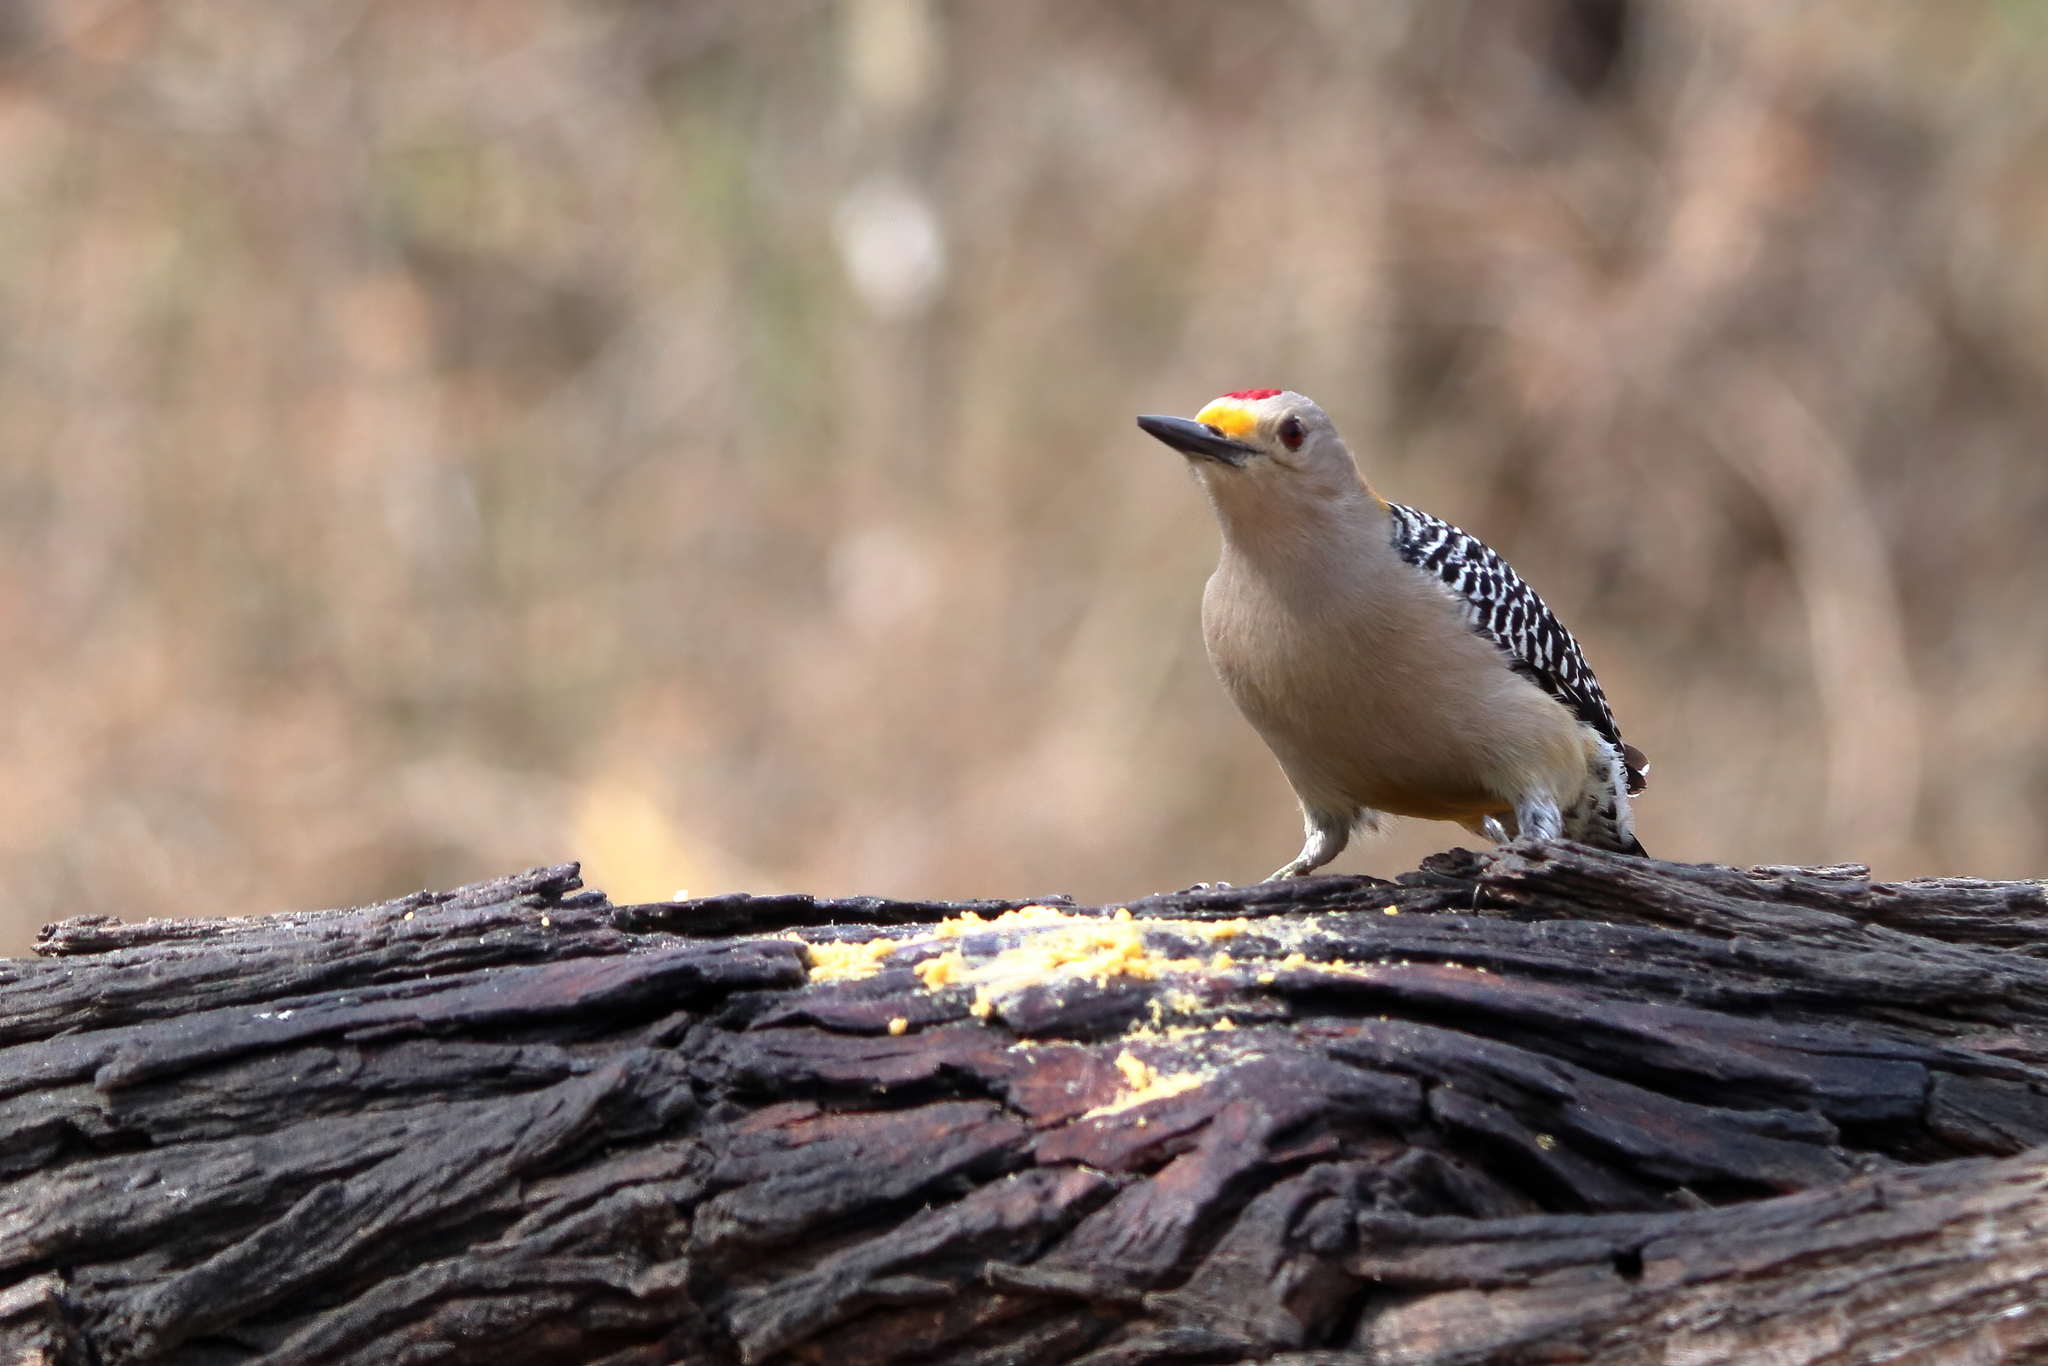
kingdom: Animalia
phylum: Chordata
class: Aves
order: Piciformes
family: Picidae
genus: Melanerpes
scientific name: Melanerpes aurifrons
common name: Golden-fronted woodpecker
